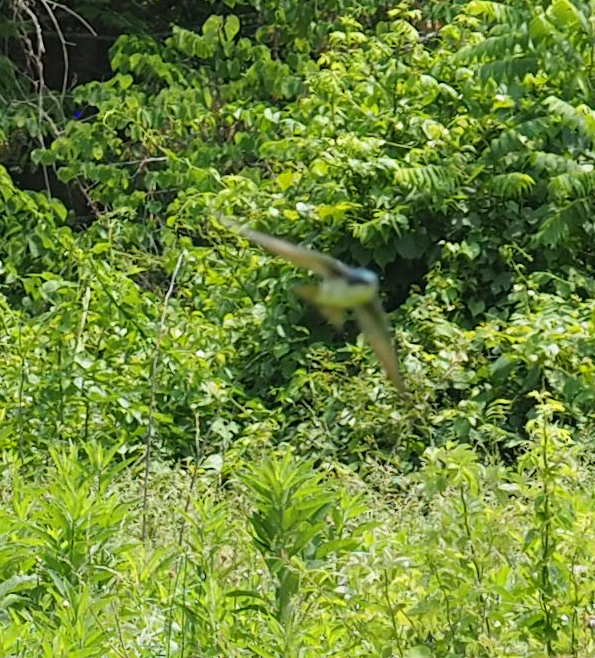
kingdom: Animalia
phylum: Chordata
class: Aves
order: Passeriformes
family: Hirundinidae
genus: Tachycineta
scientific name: Tachycineta bicolor
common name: Tree swallow
